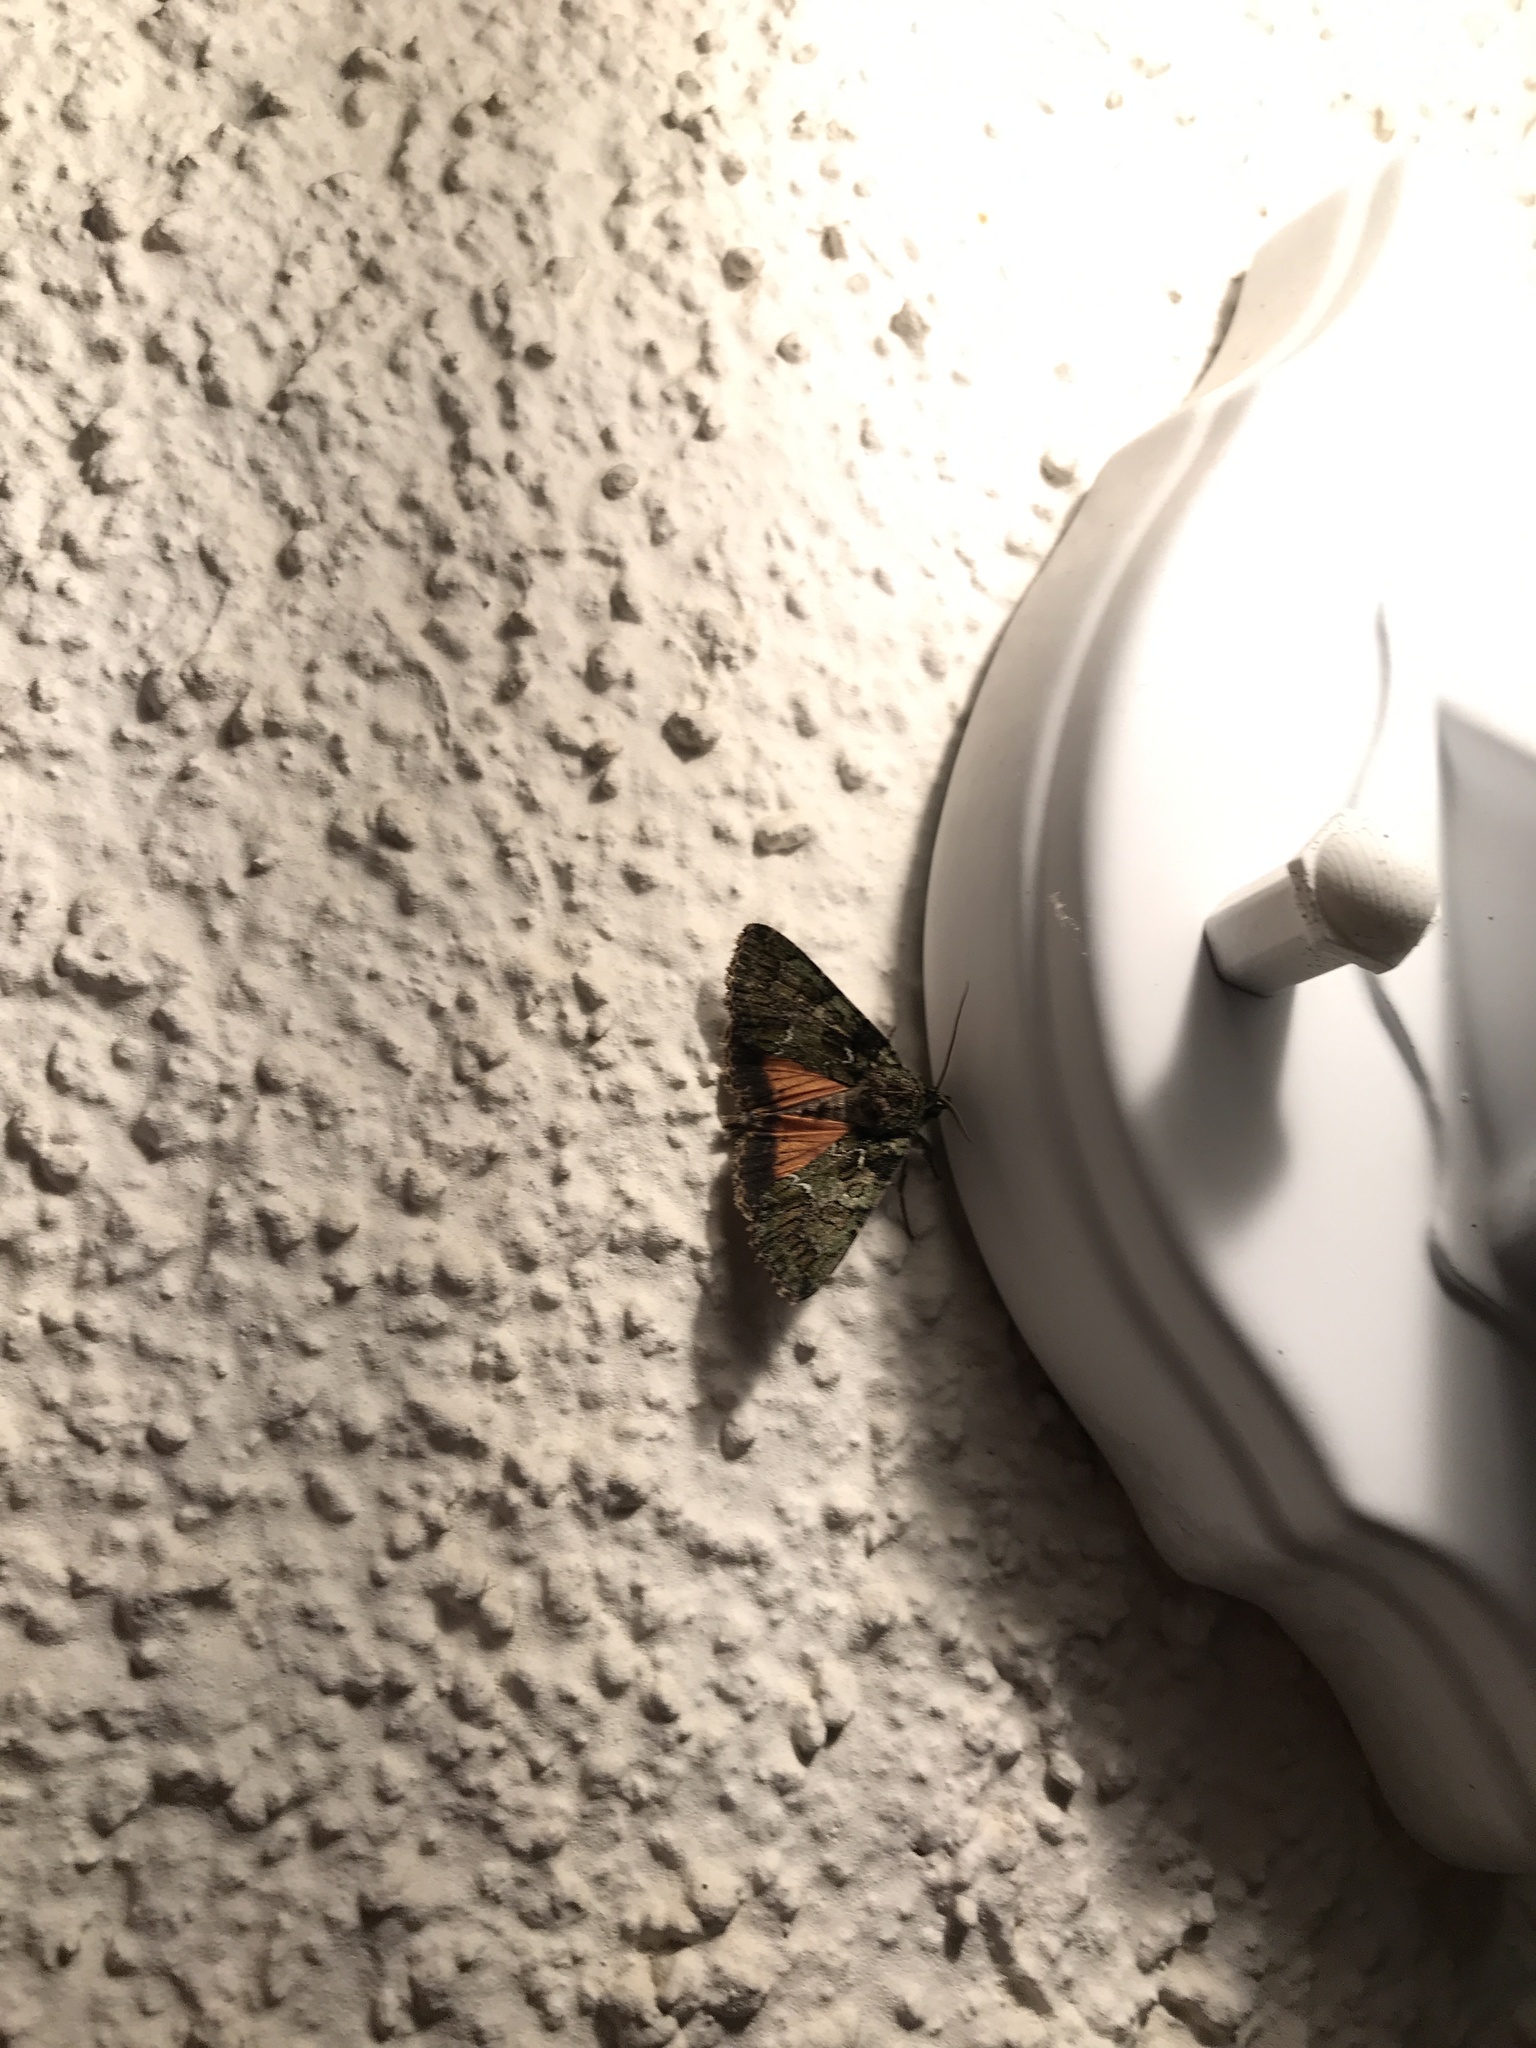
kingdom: Animalia
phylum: Arthropoda
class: Insecta
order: Lepidoptera
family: Noctuidae
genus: Polyphaenis
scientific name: Polyphaenis sericata
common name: Guernsey underwing
